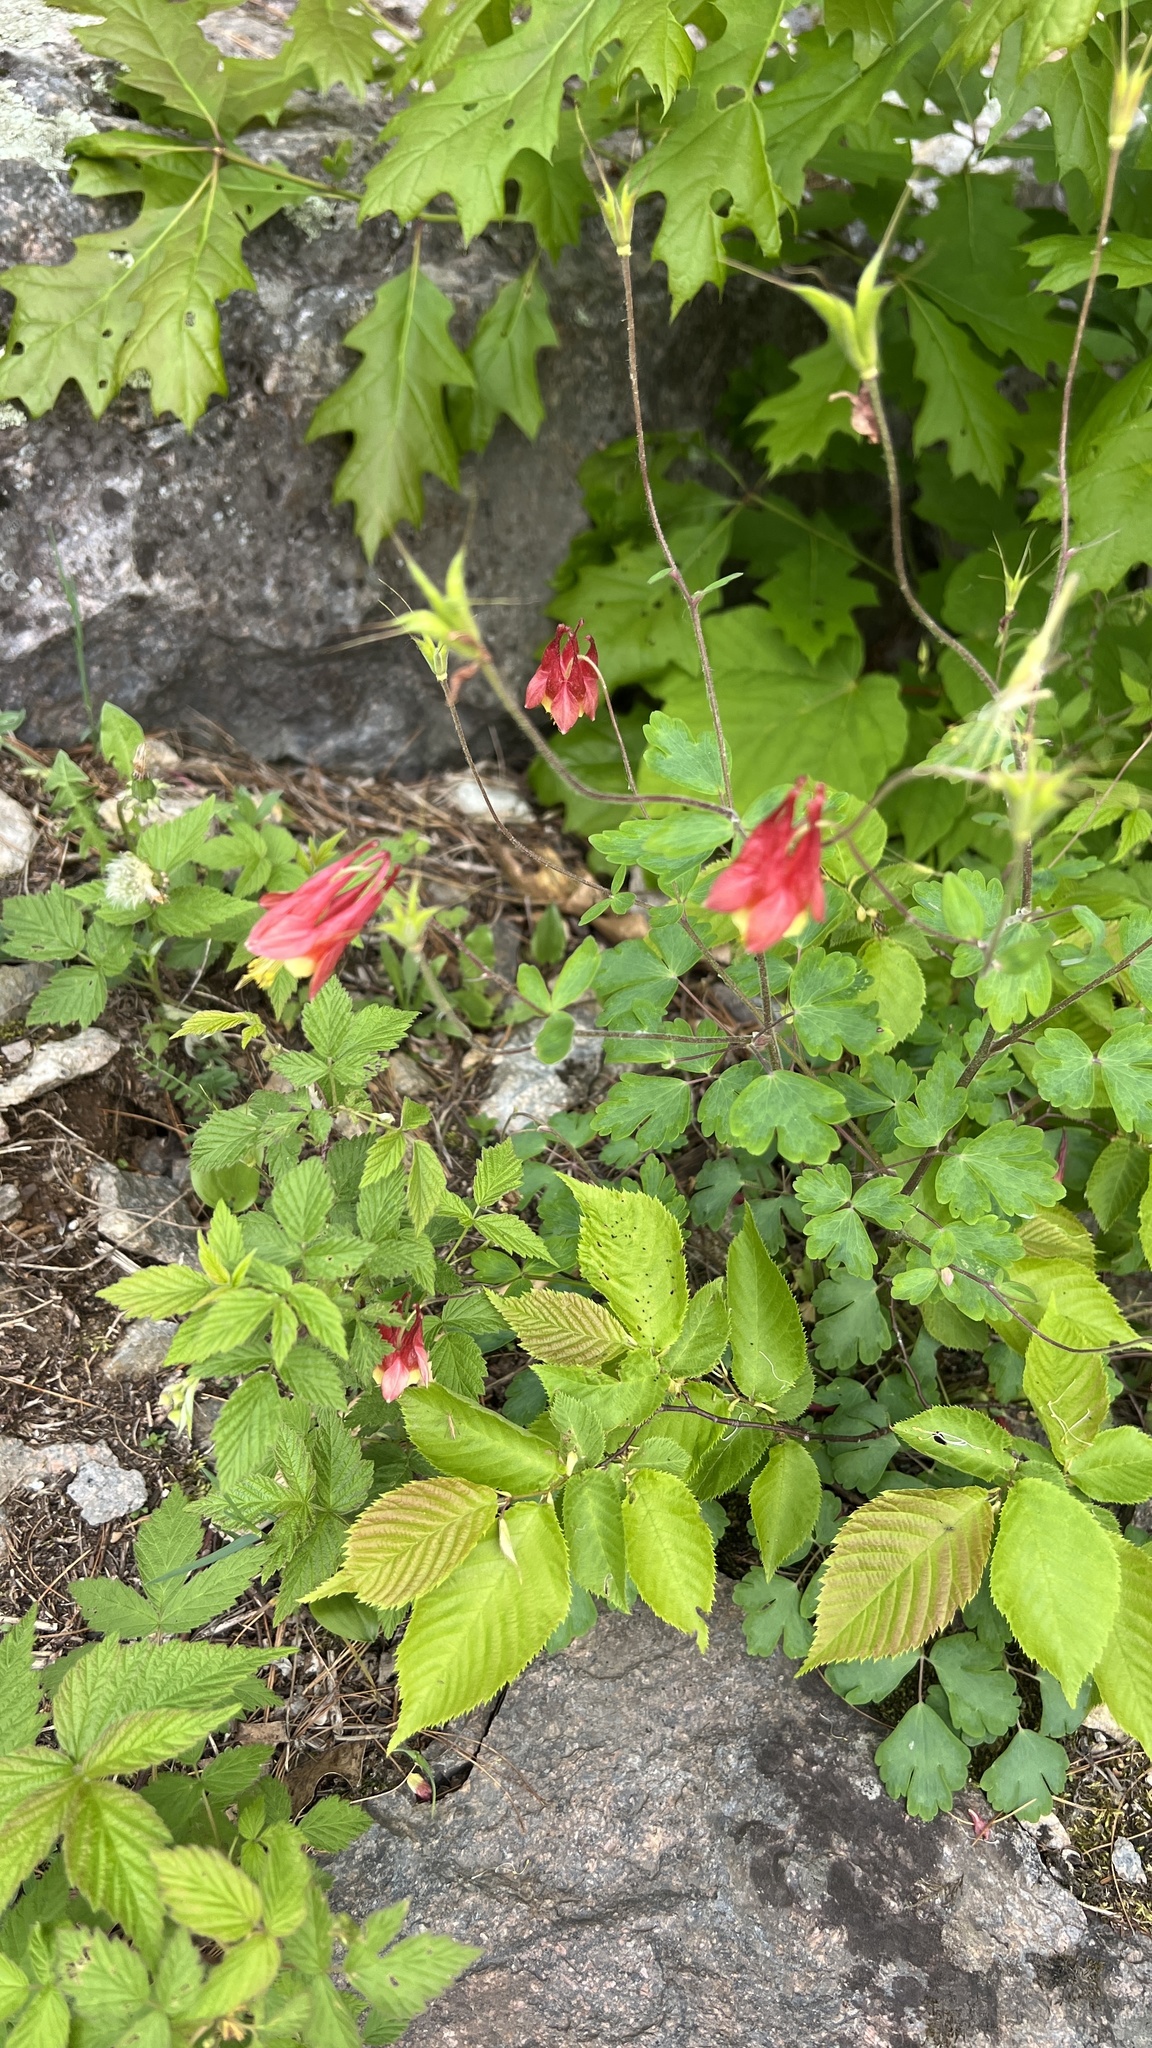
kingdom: Plantae
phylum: Tracheophyta
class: Magnoliopsida
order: Ranunculales
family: Ranunculaceae
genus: Aquilegia
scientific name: Aquilegia canadensis
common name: American columbine
